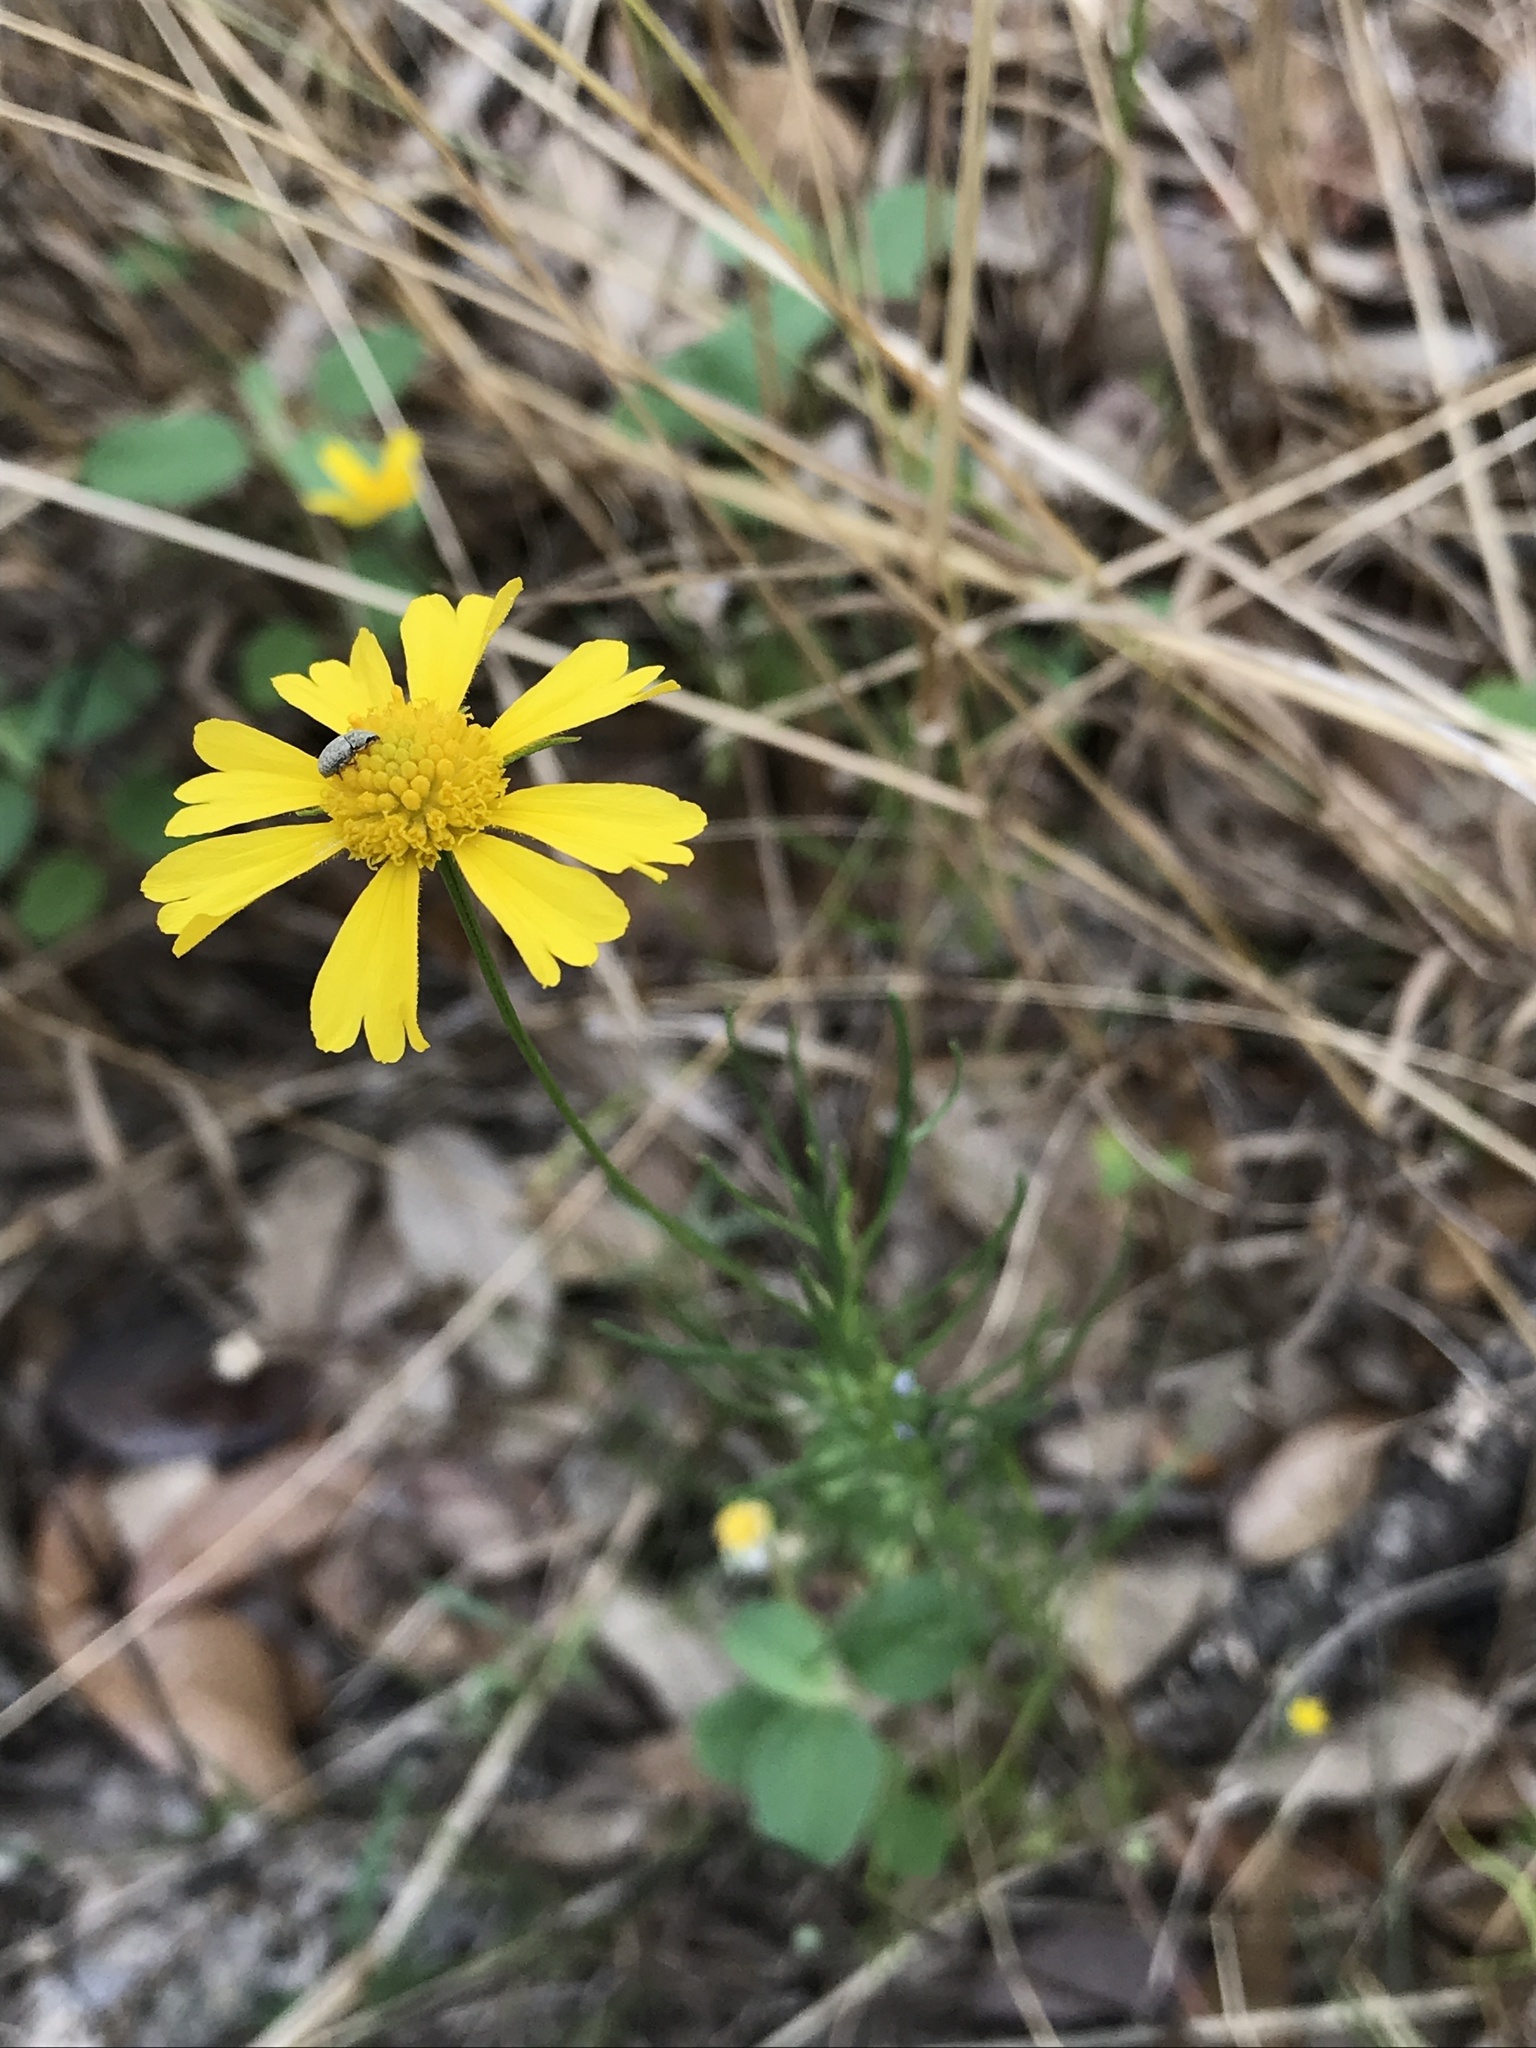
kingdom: Plantae
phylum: Tracheophyta
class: Magnoliopsida
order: Asterales
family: Asteraceae
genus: Helenium
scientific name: Helenium amarum
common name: Bitter sneezeweed
